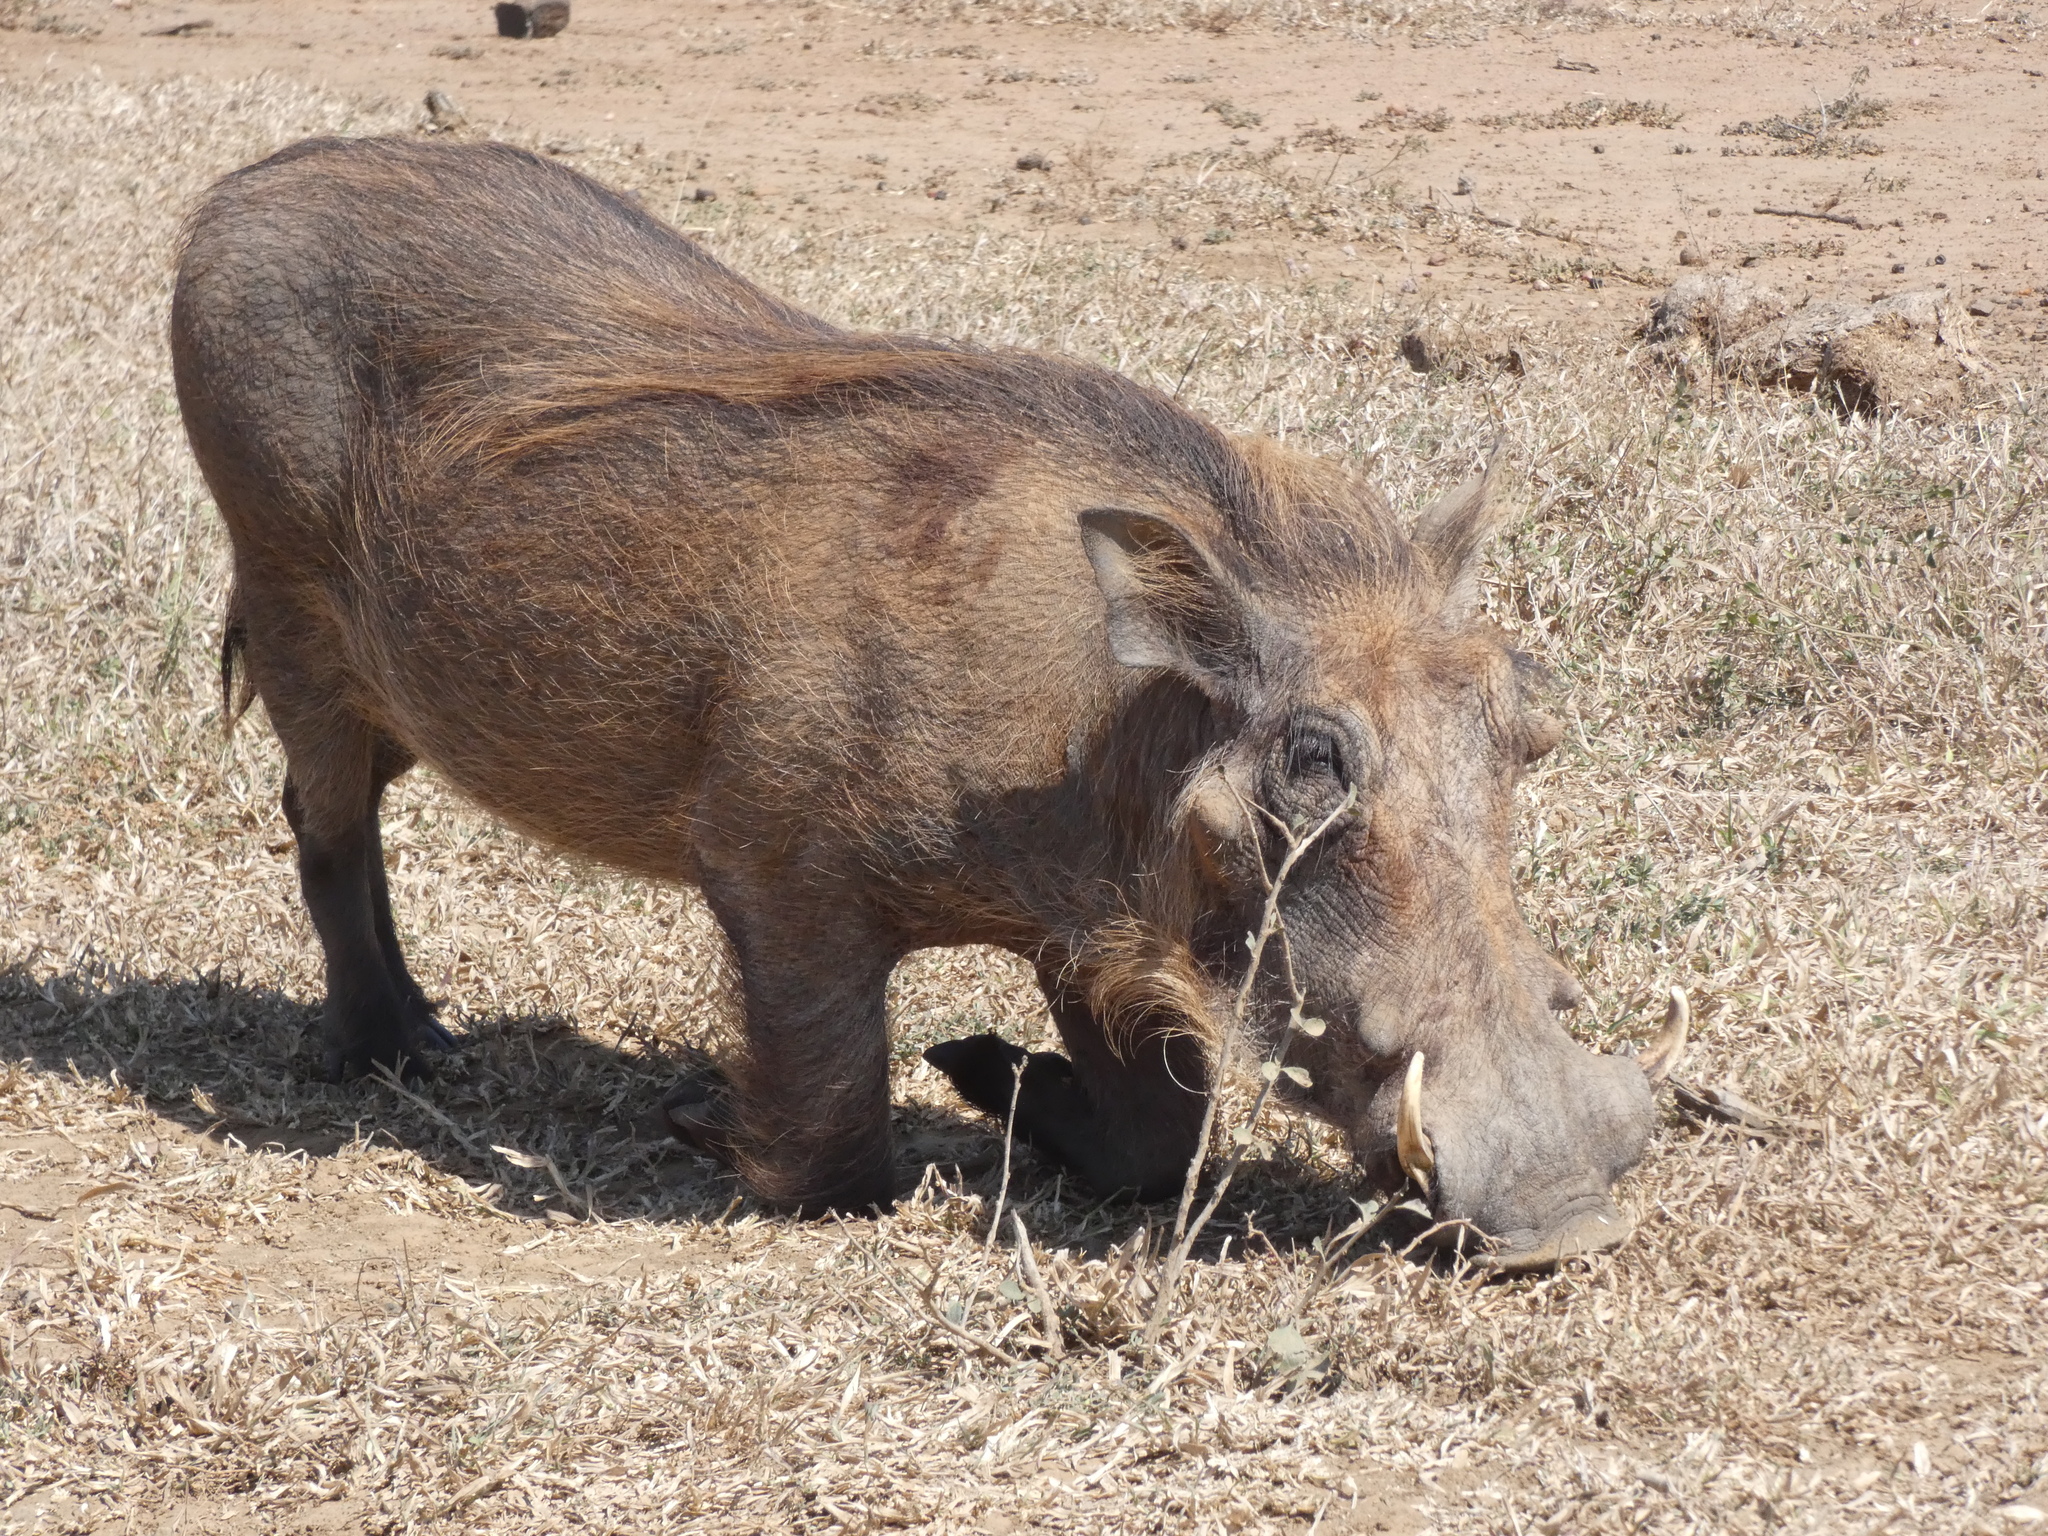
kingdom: Animalia
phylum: Chordata
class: Mammalia
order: Artiodactyla
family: Suidae
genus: Phacochoerus
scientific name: Phacochoerus africanus
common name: Common warthog
